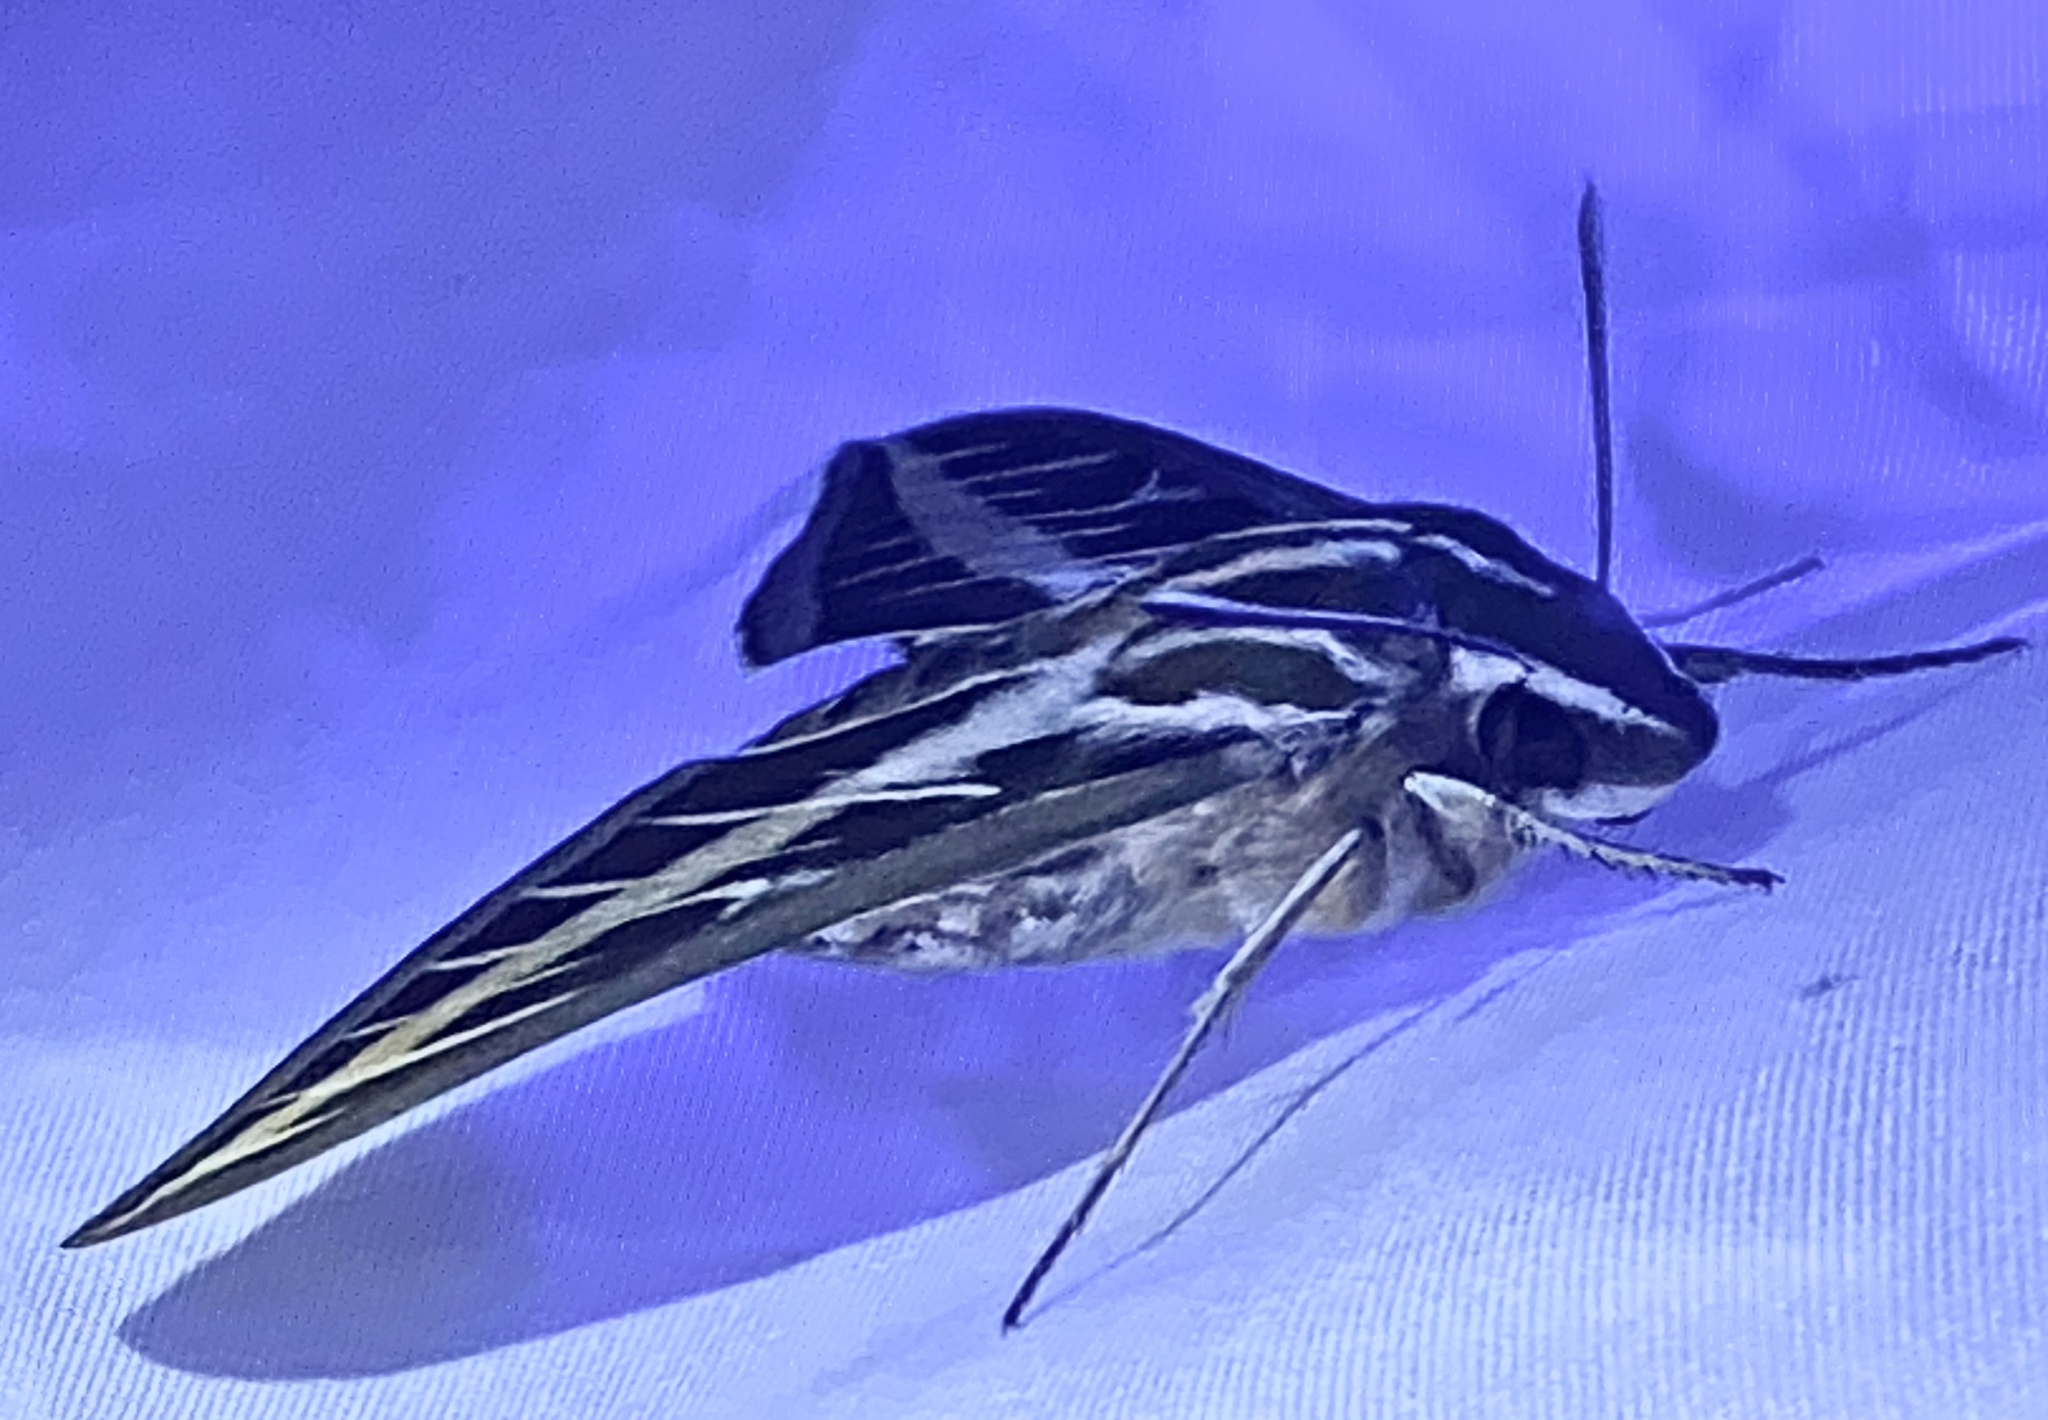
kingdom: Animalia
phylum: Arthropoda
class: Insecta
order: Lepidoptera
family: Sphingidae
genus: Hyles
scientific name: Hyles lineata
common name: White-lined sphinx
